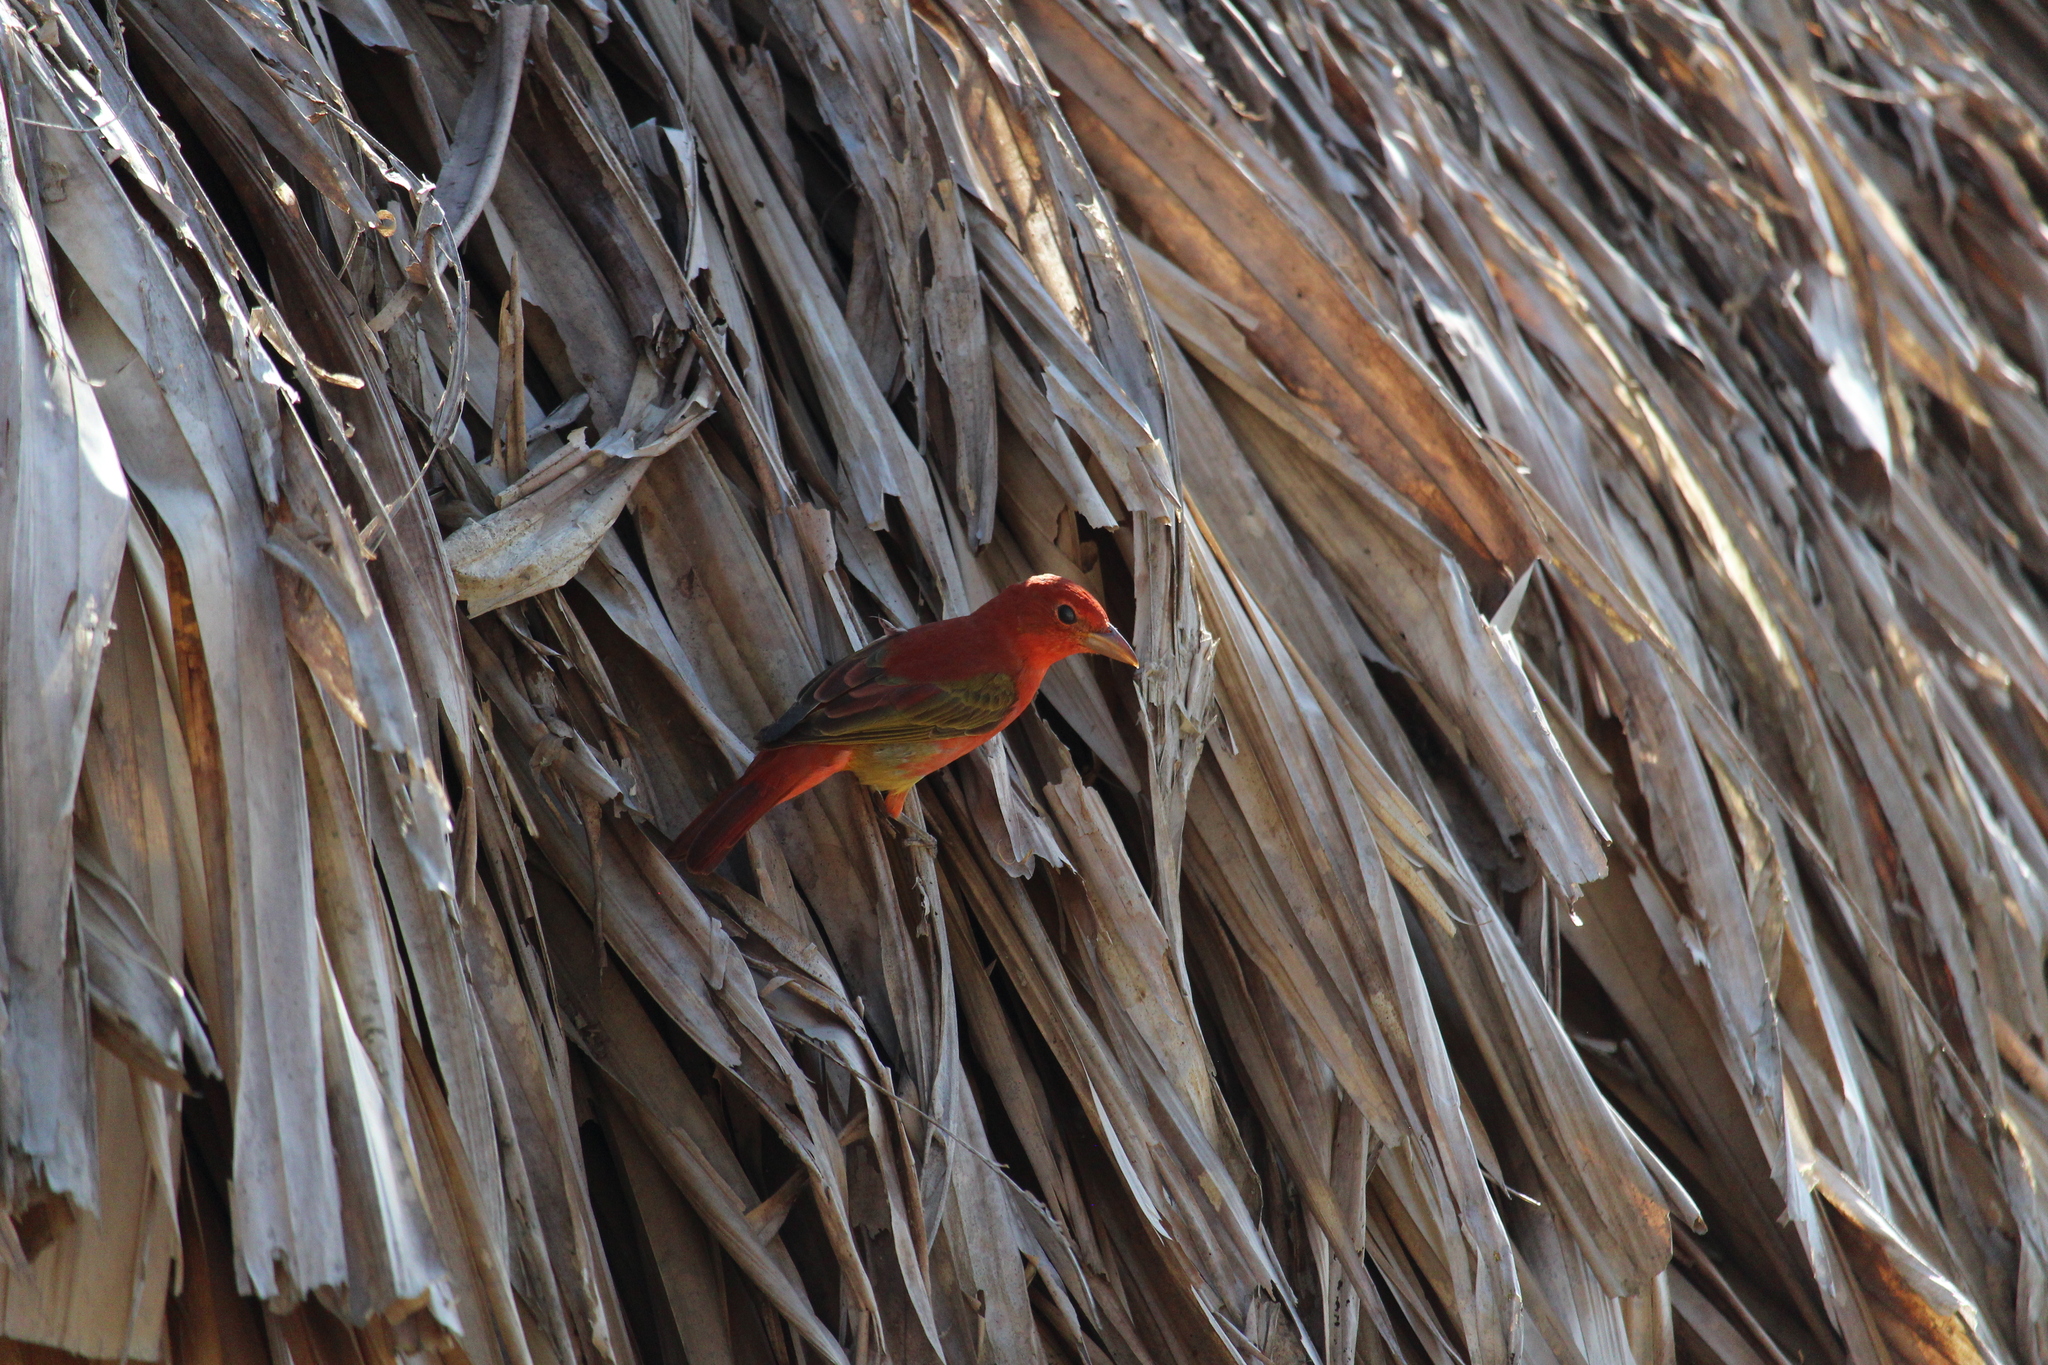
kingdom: Animalia
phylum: Chordata
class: Aves
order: Passeriformes
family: Cardinalidae
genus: Piranga
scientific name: Piranga rubra
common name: Summer tanager
